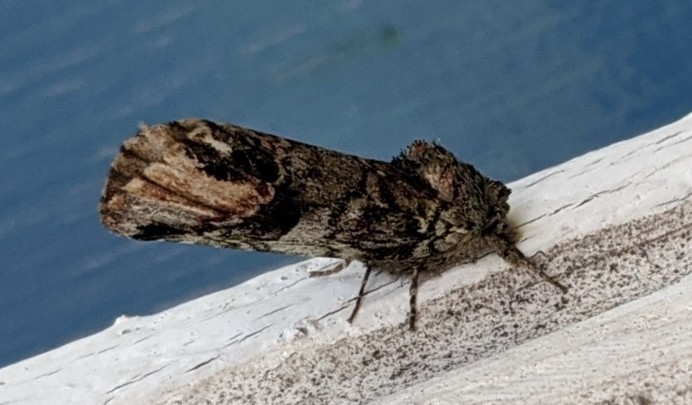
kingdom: Animalia
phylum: Arthropoda
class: Insecta
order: Lepidoptera
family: Notodontidae
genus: Schizura
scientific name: Schizura
